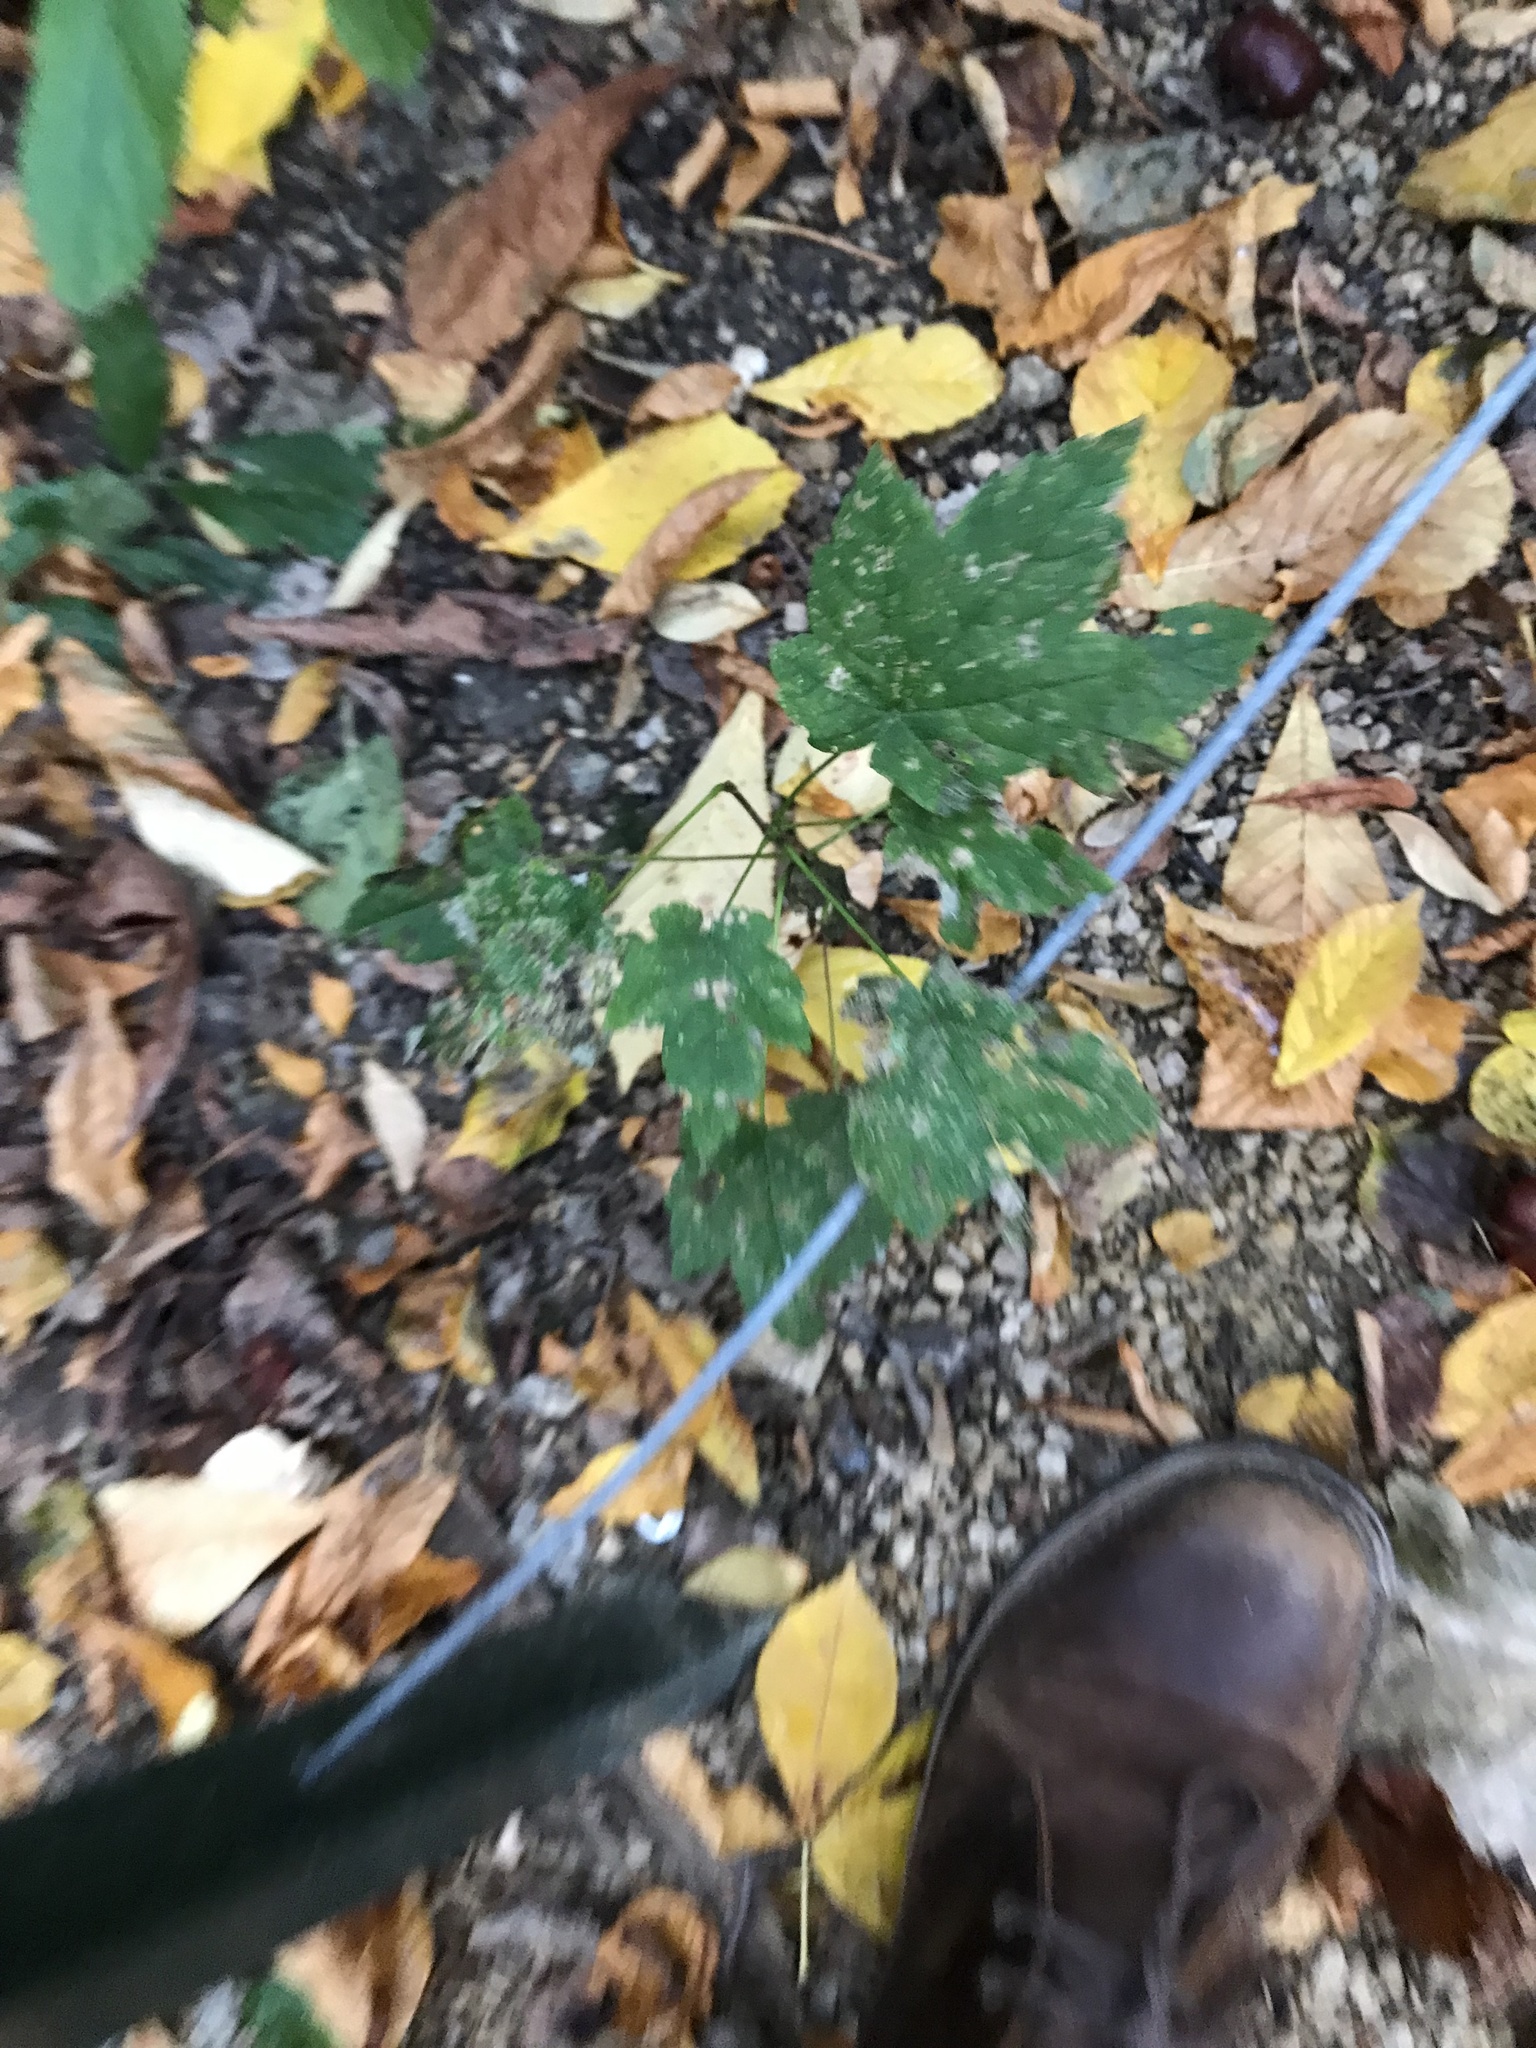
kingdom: Plantae
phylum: Tracheophyta
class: Magnoliopsida
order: Sapindales
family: Sapindaceae
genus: Acer
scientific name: Acer pseudoplatanus
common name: Sycamore
